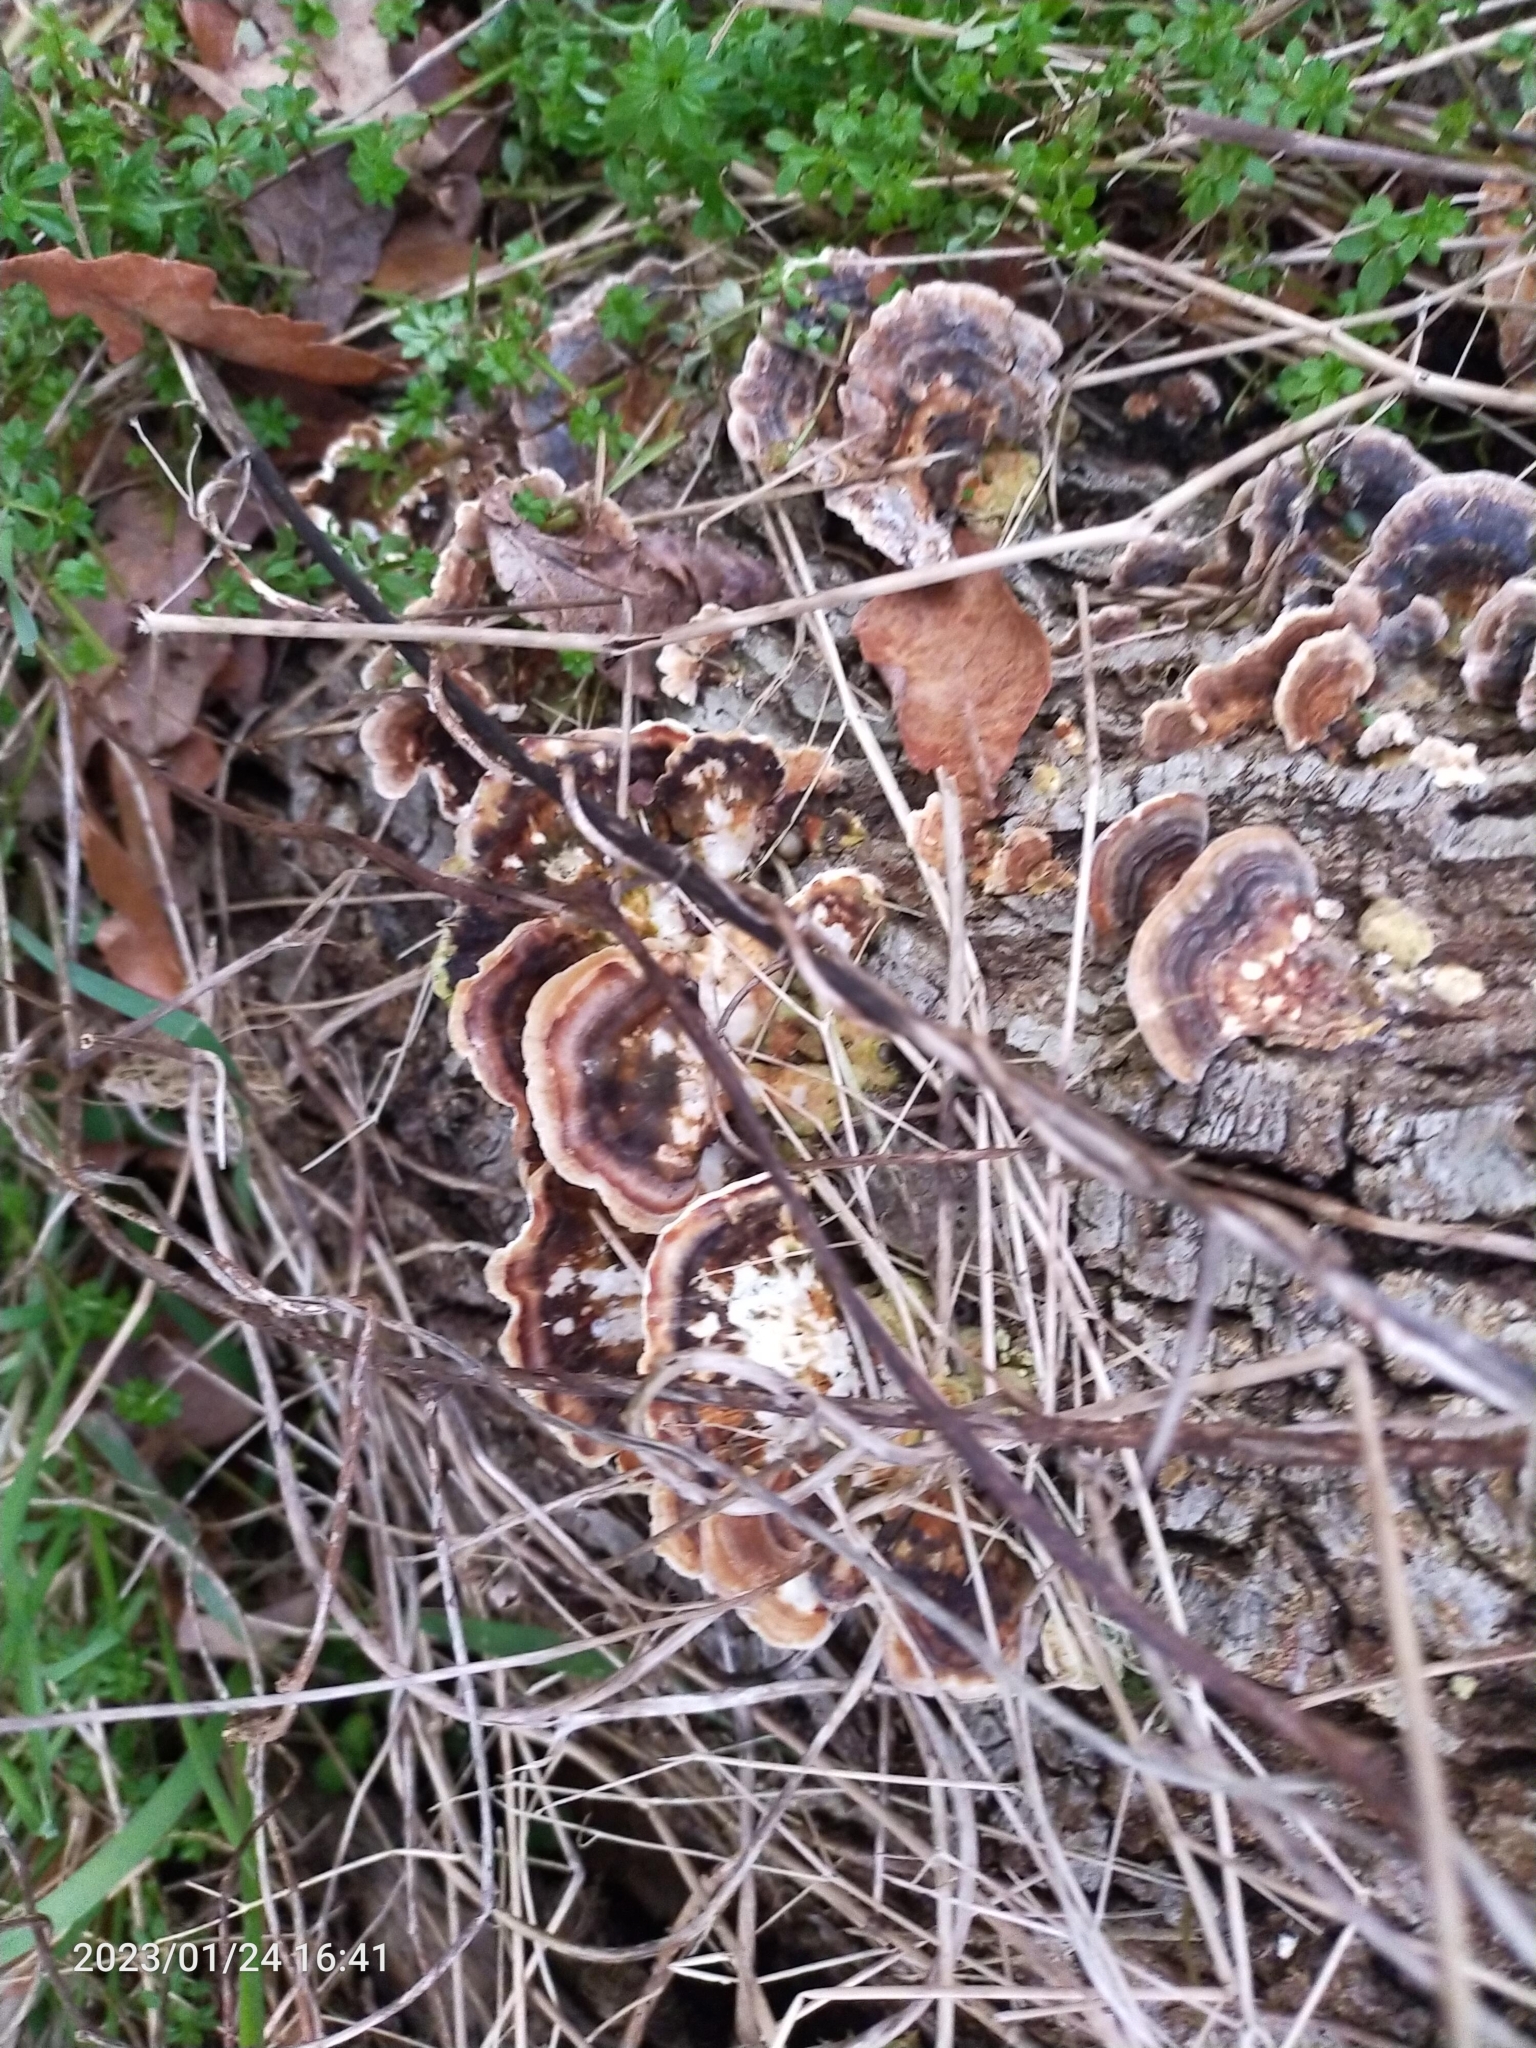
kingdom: Fungi
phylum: Basidiomycota
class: Agaricomycetes
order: Polyporales
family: Polyporaceae
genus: Trametes
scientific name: Trametes versicolor
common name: Turkeytail
